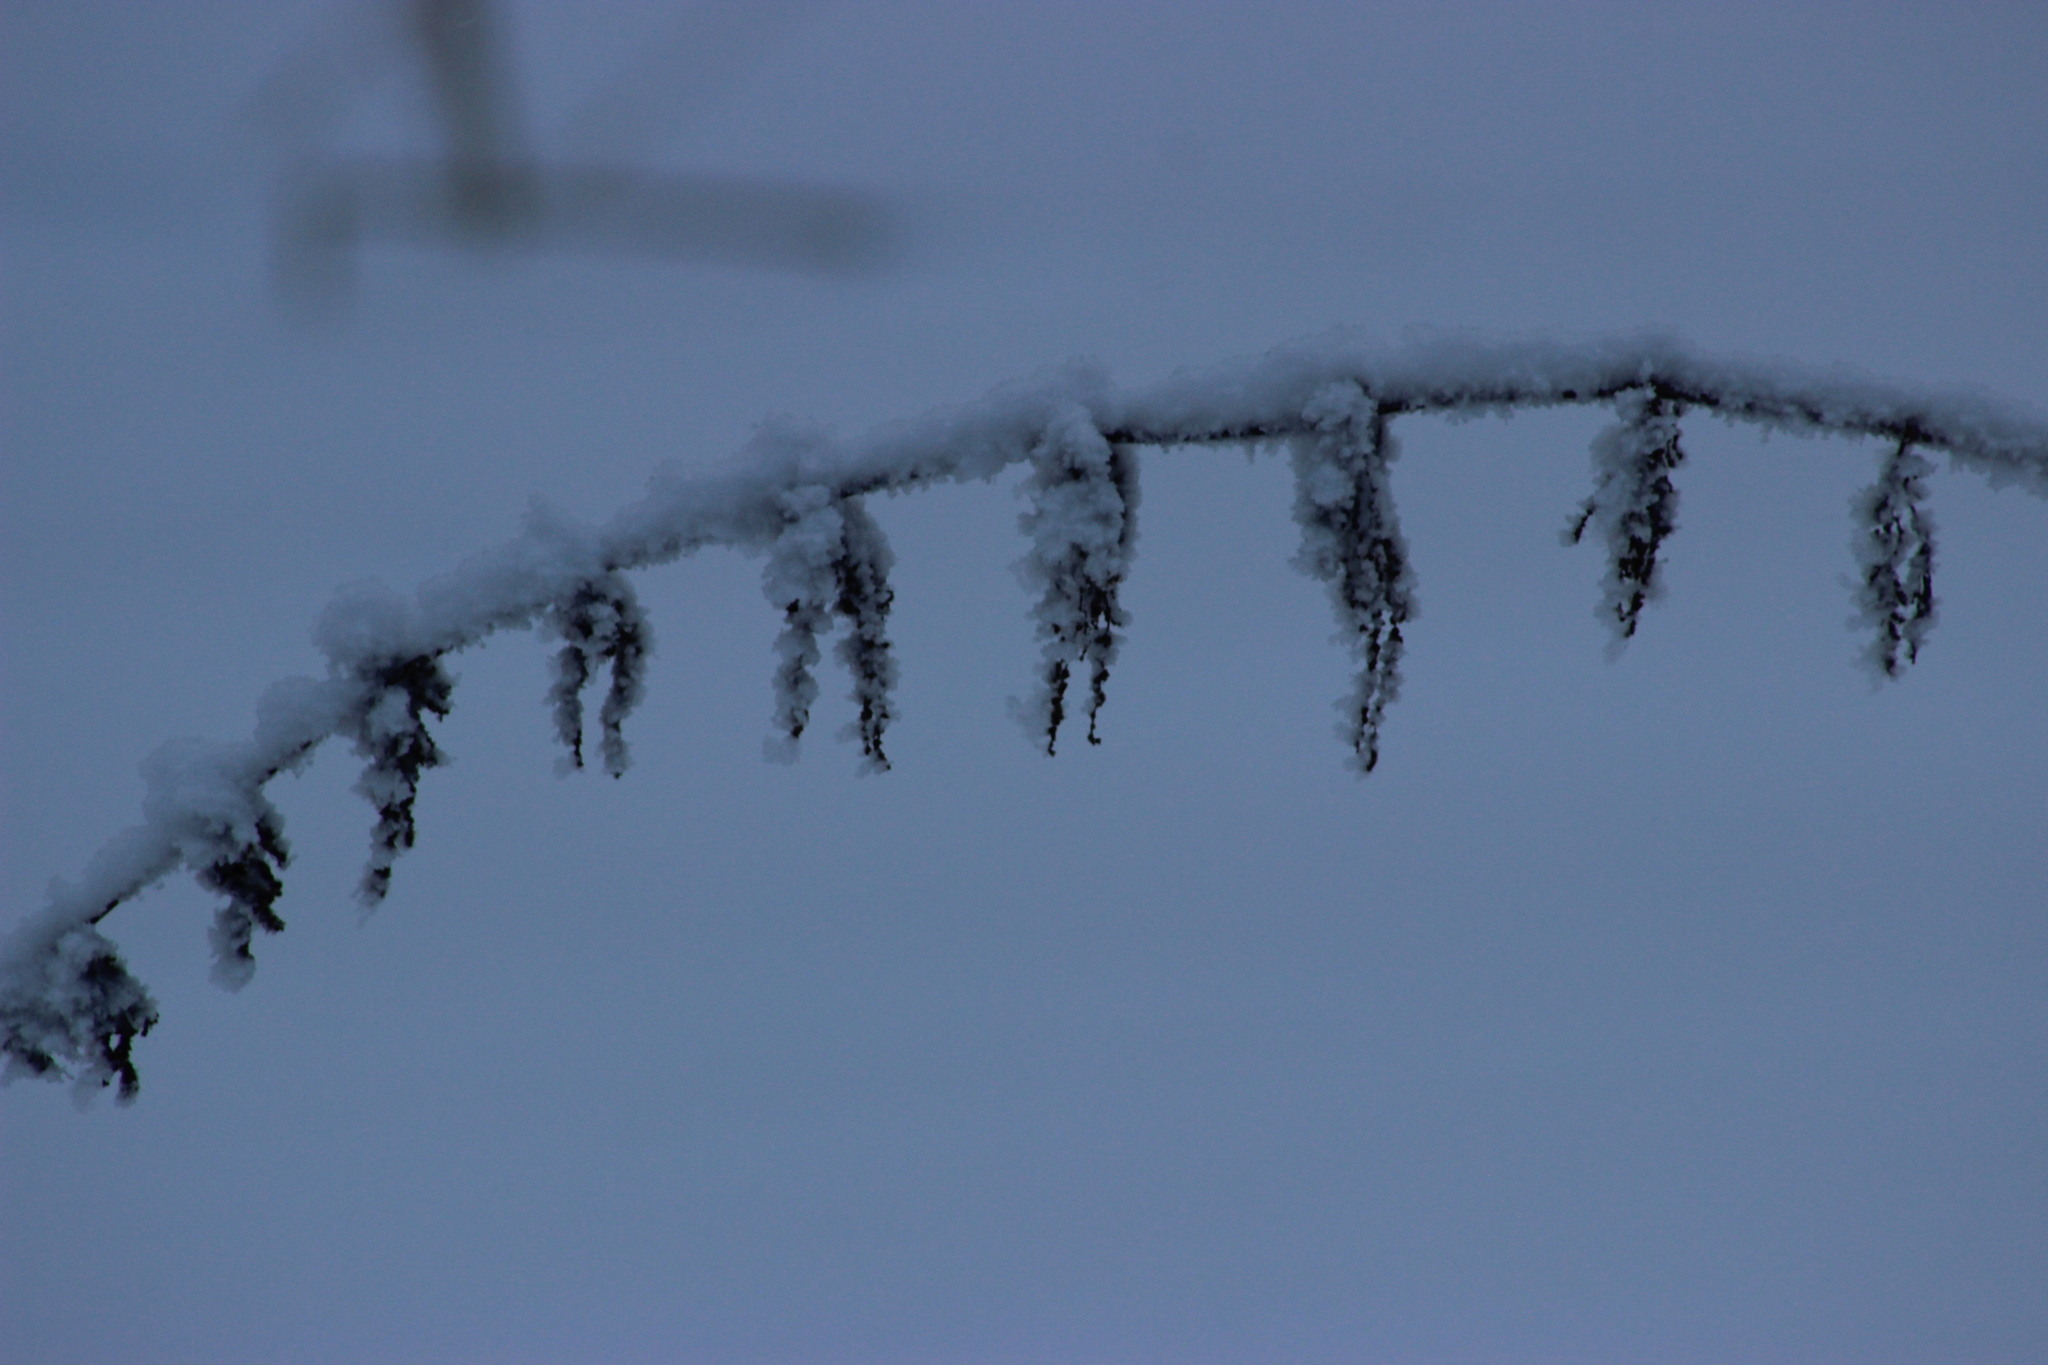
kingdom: Plantae
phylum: Tracheophyta
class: Magnoliopsida
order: Rosales
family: Urticaceae
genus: Urtica
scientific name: Urtica dioica
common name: Common nettle
